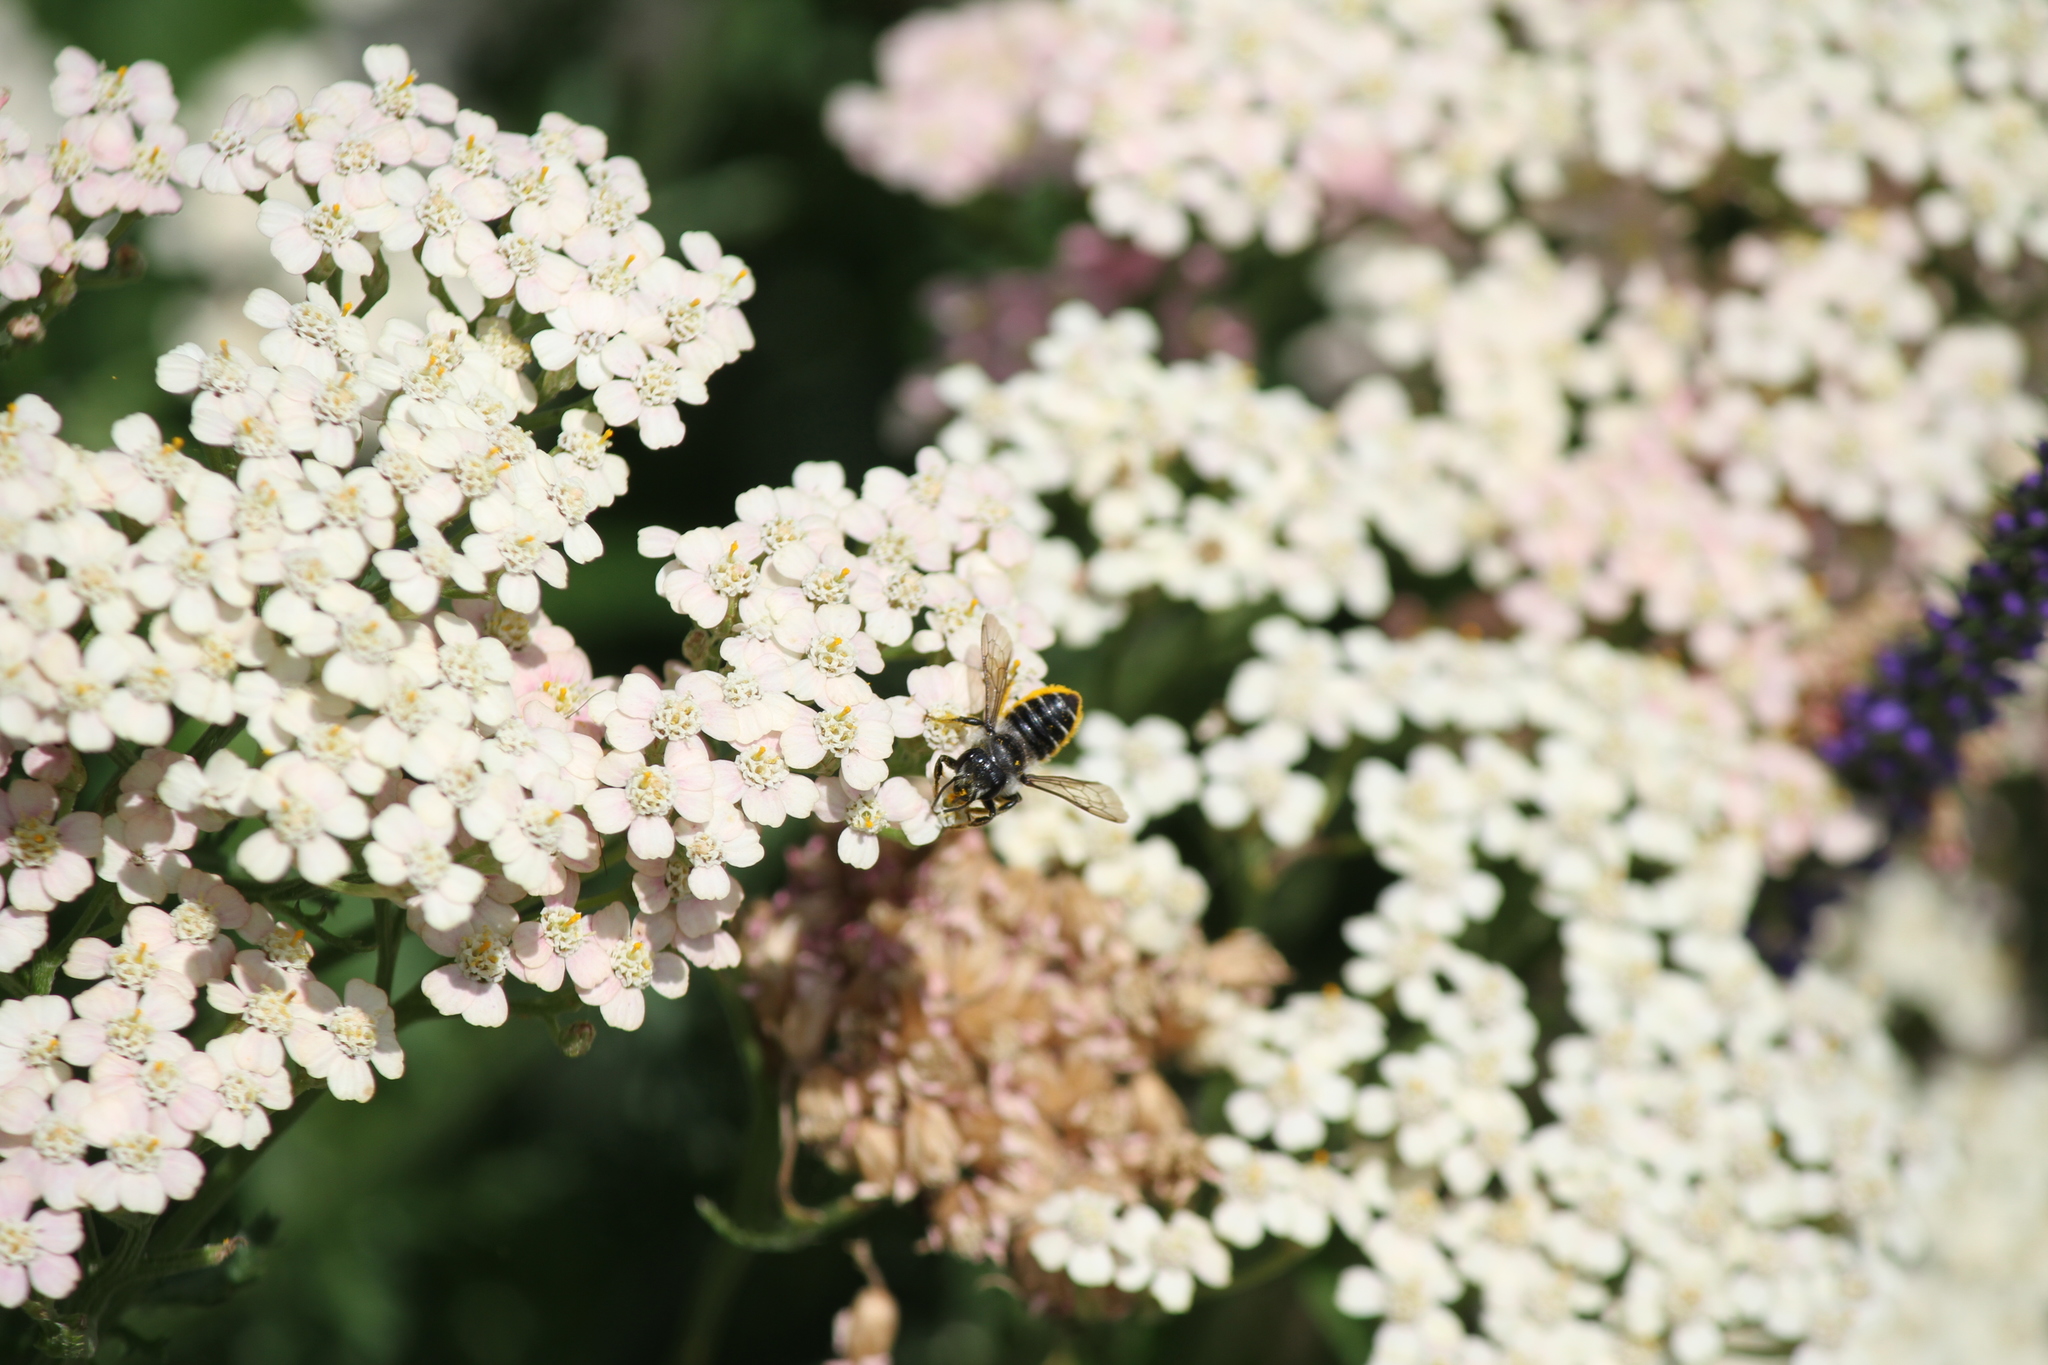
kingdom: Animalia
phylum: Arthropoda
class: Insecta
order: Hymenoptera
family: Megachilidae
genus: Megachile
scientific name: Megachile relativa
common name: Golden-tailed leafcutter
